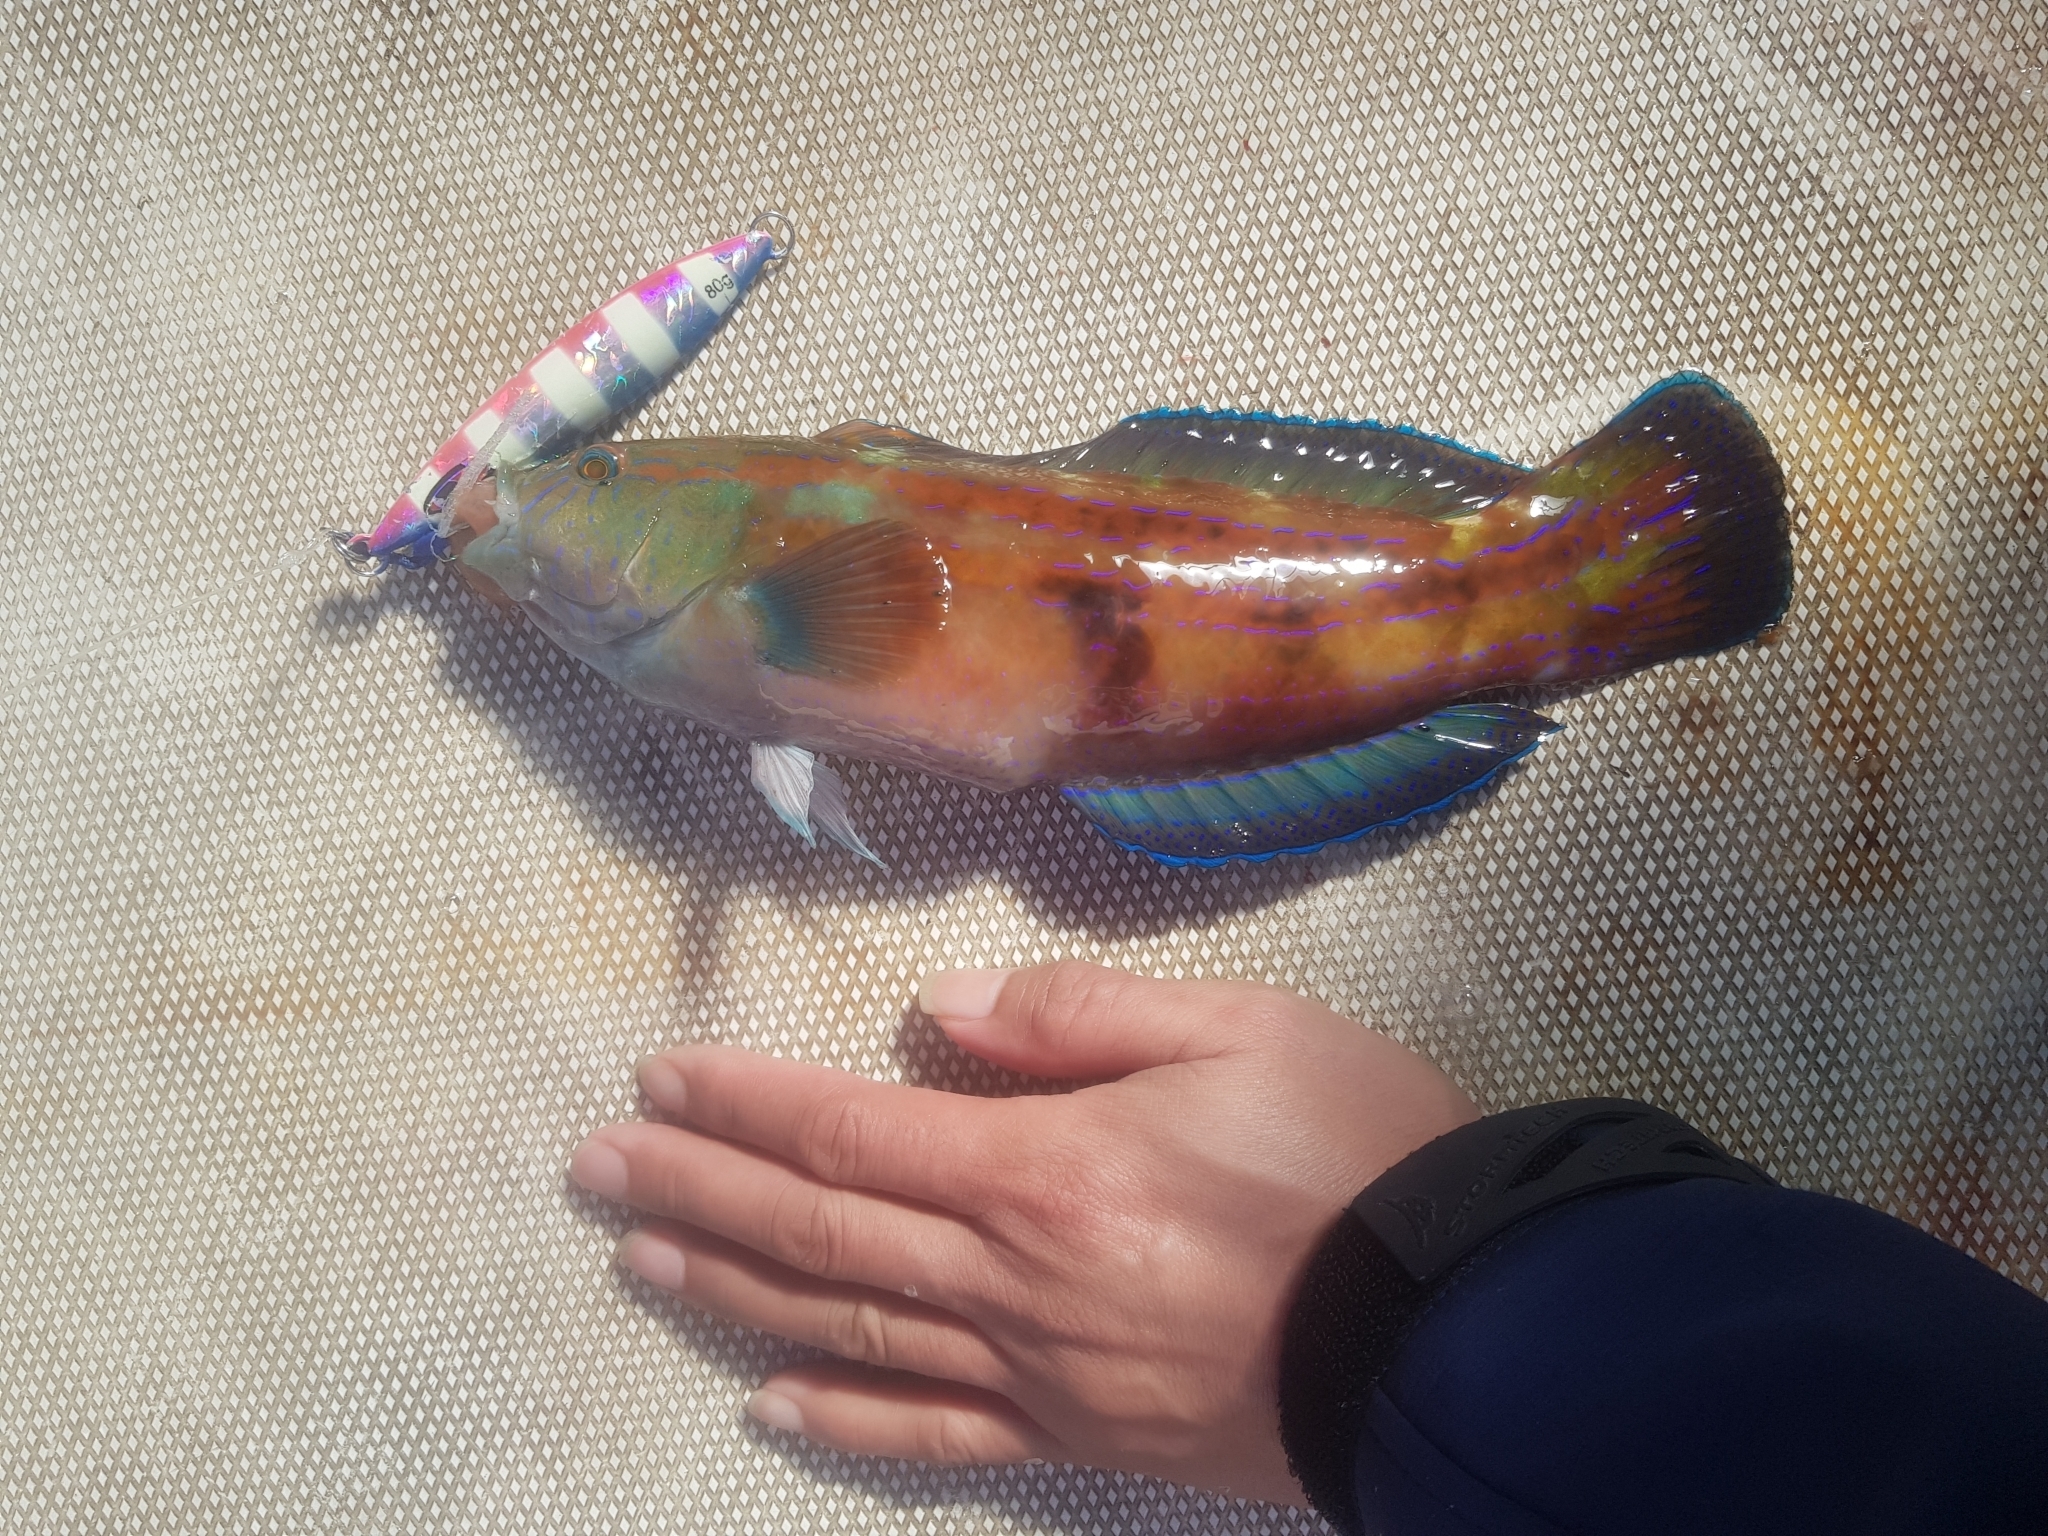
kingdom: Animalia
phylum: Chordata
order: Perciformes
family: Labridae
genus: Pictilabrus
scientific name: Pictilabrus laticlavius
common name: Patrician wrasse
